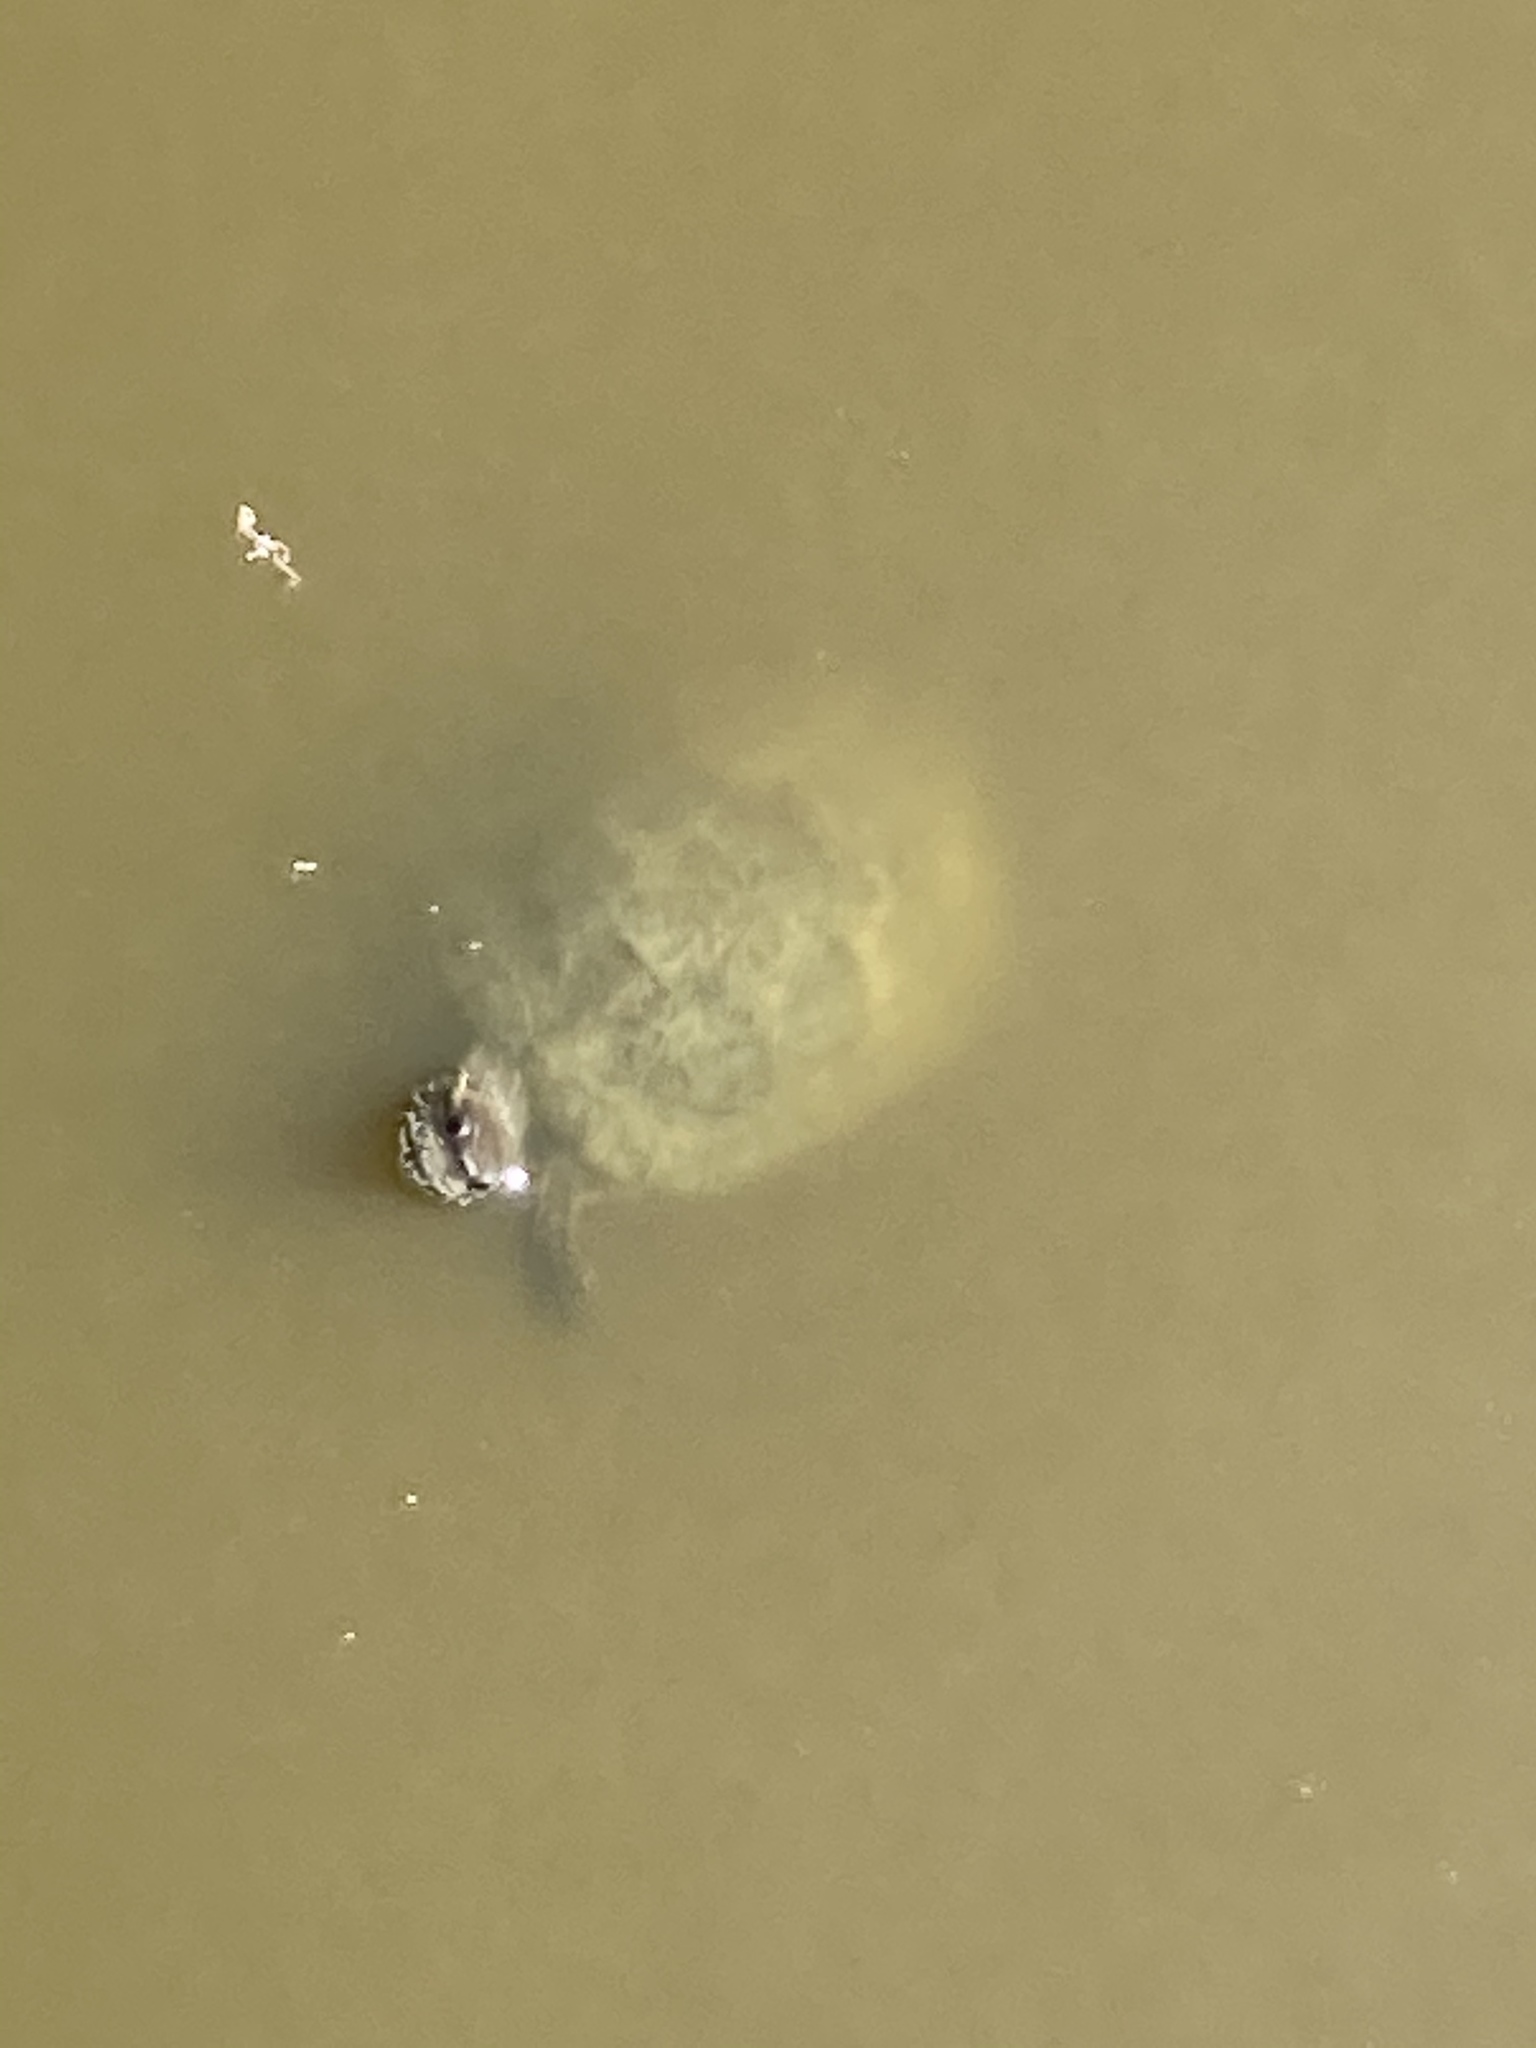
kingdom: Animalia
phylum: Chordata
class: Testudines
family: Geoemydidae
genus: Mauremys
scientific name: Mauremys rivulata
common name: Western caspian turtle
